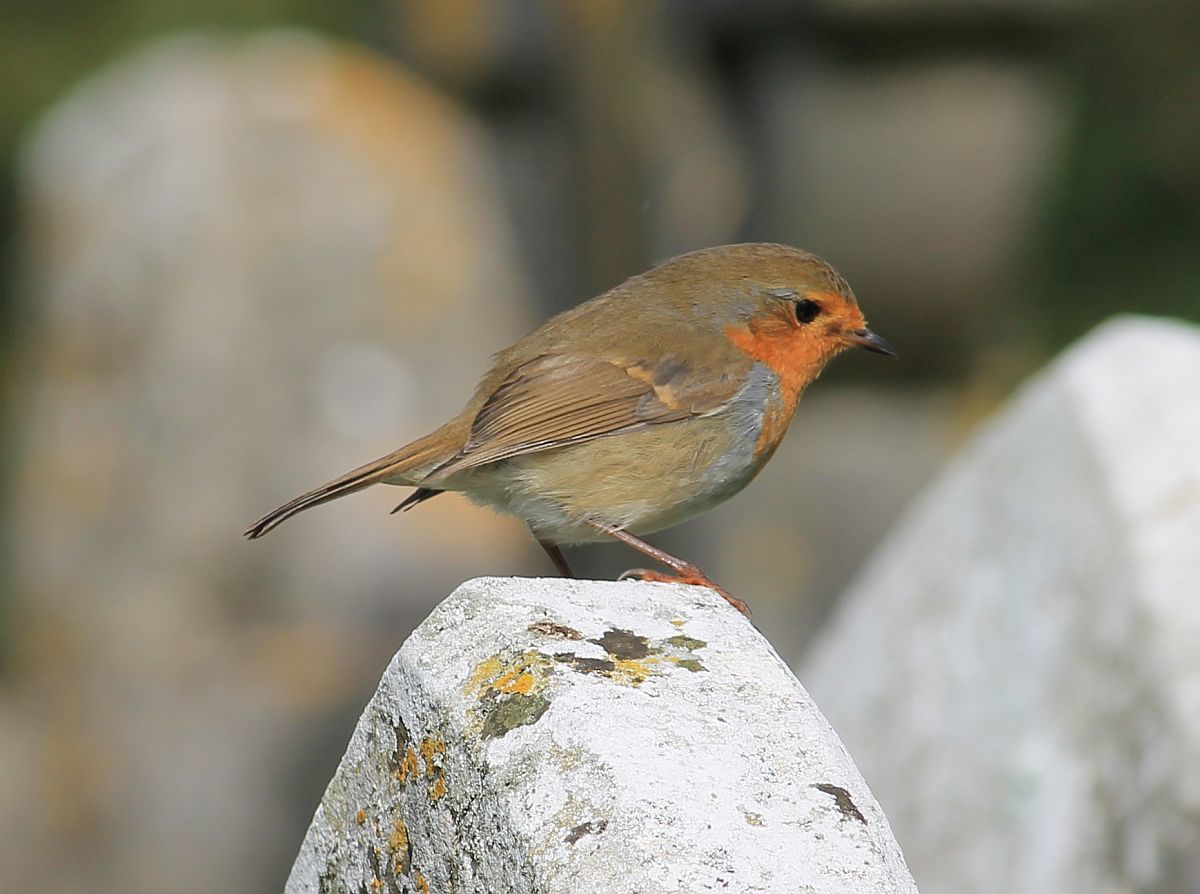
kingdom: Animalia
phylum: Chordata
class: Aves
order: Passeriformes
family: Muscicapidae
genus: Erithacus
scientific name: Erithacus rubecula
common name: European robin
